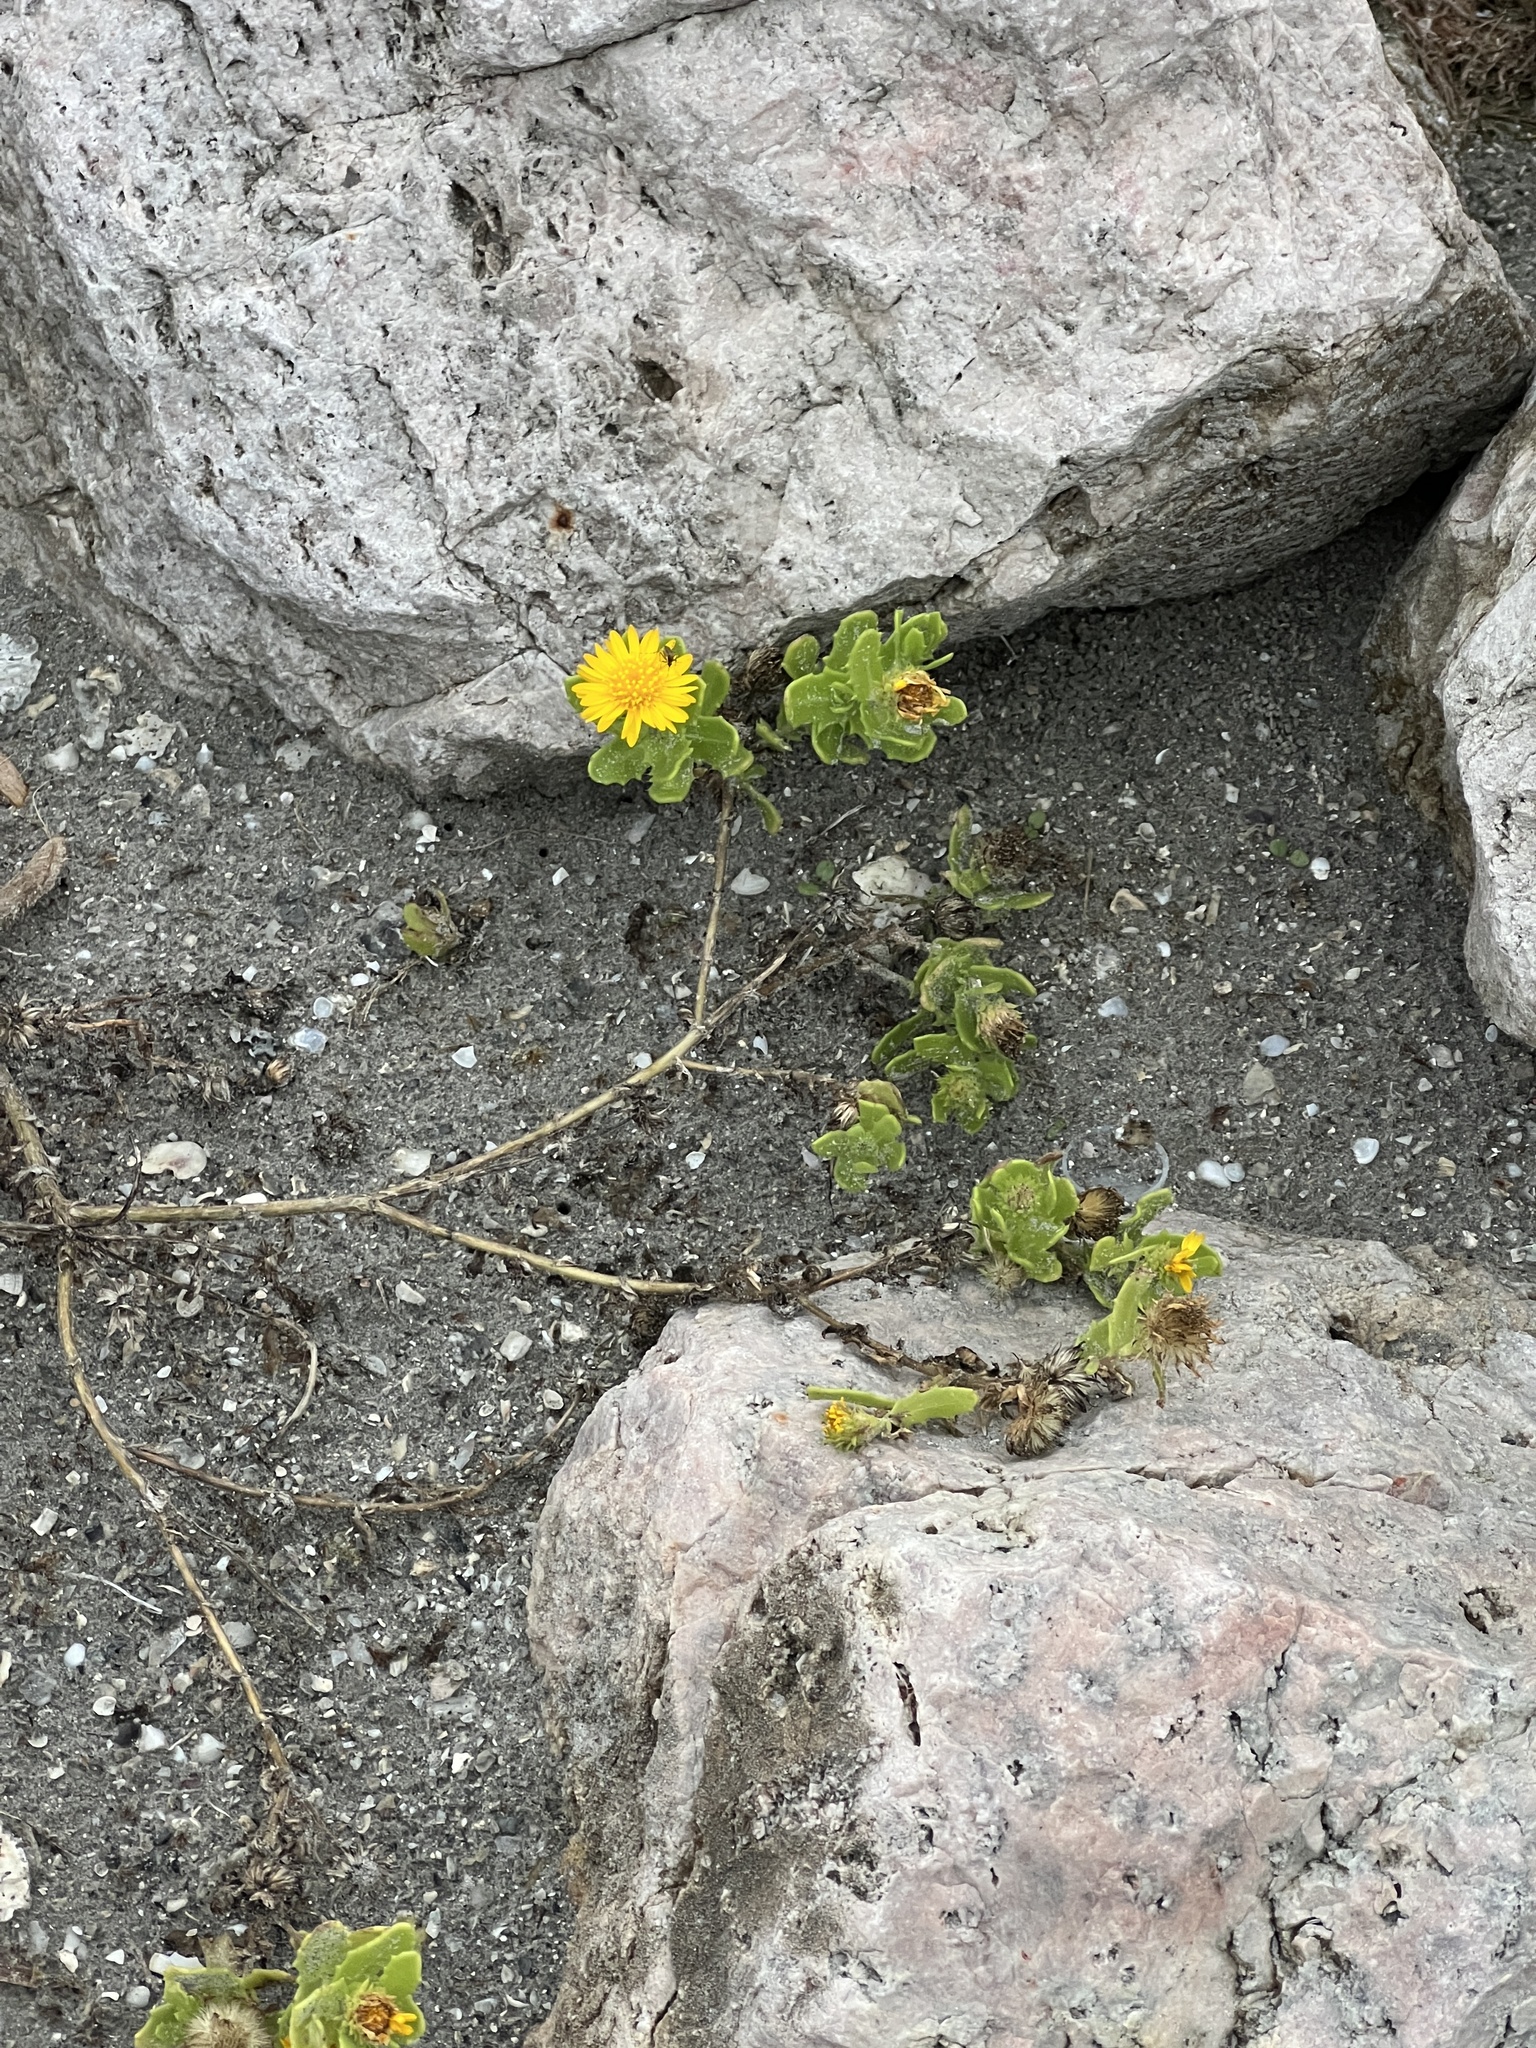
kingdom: Plantae
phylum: Tracheophyta
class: Magnoliopsida
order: Asterales
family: Asteraceae
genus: Rayjacksonia
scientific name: Rayjacksonia phyllocephala
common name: Gulf coast camphor daisy
